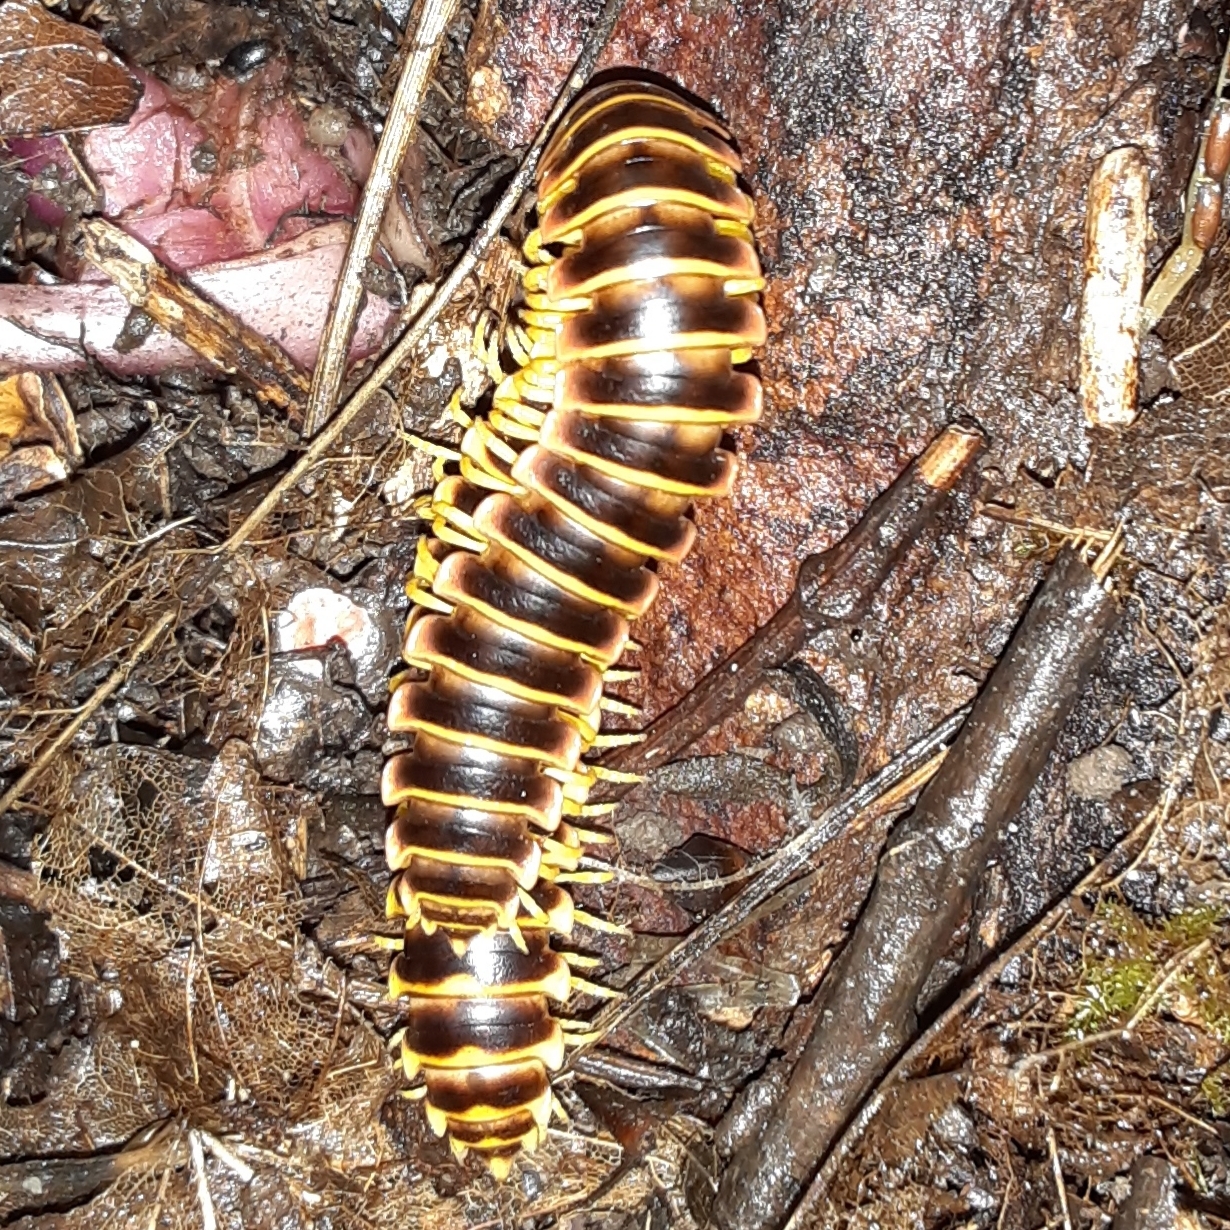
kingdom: Animalia
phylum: Arthropoda
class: Diplopoda
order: Polydesmida
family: Xystodesmidae
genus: Apheloria
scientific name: Apheloria virginiensis
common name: Black-and-gold flat millipede
